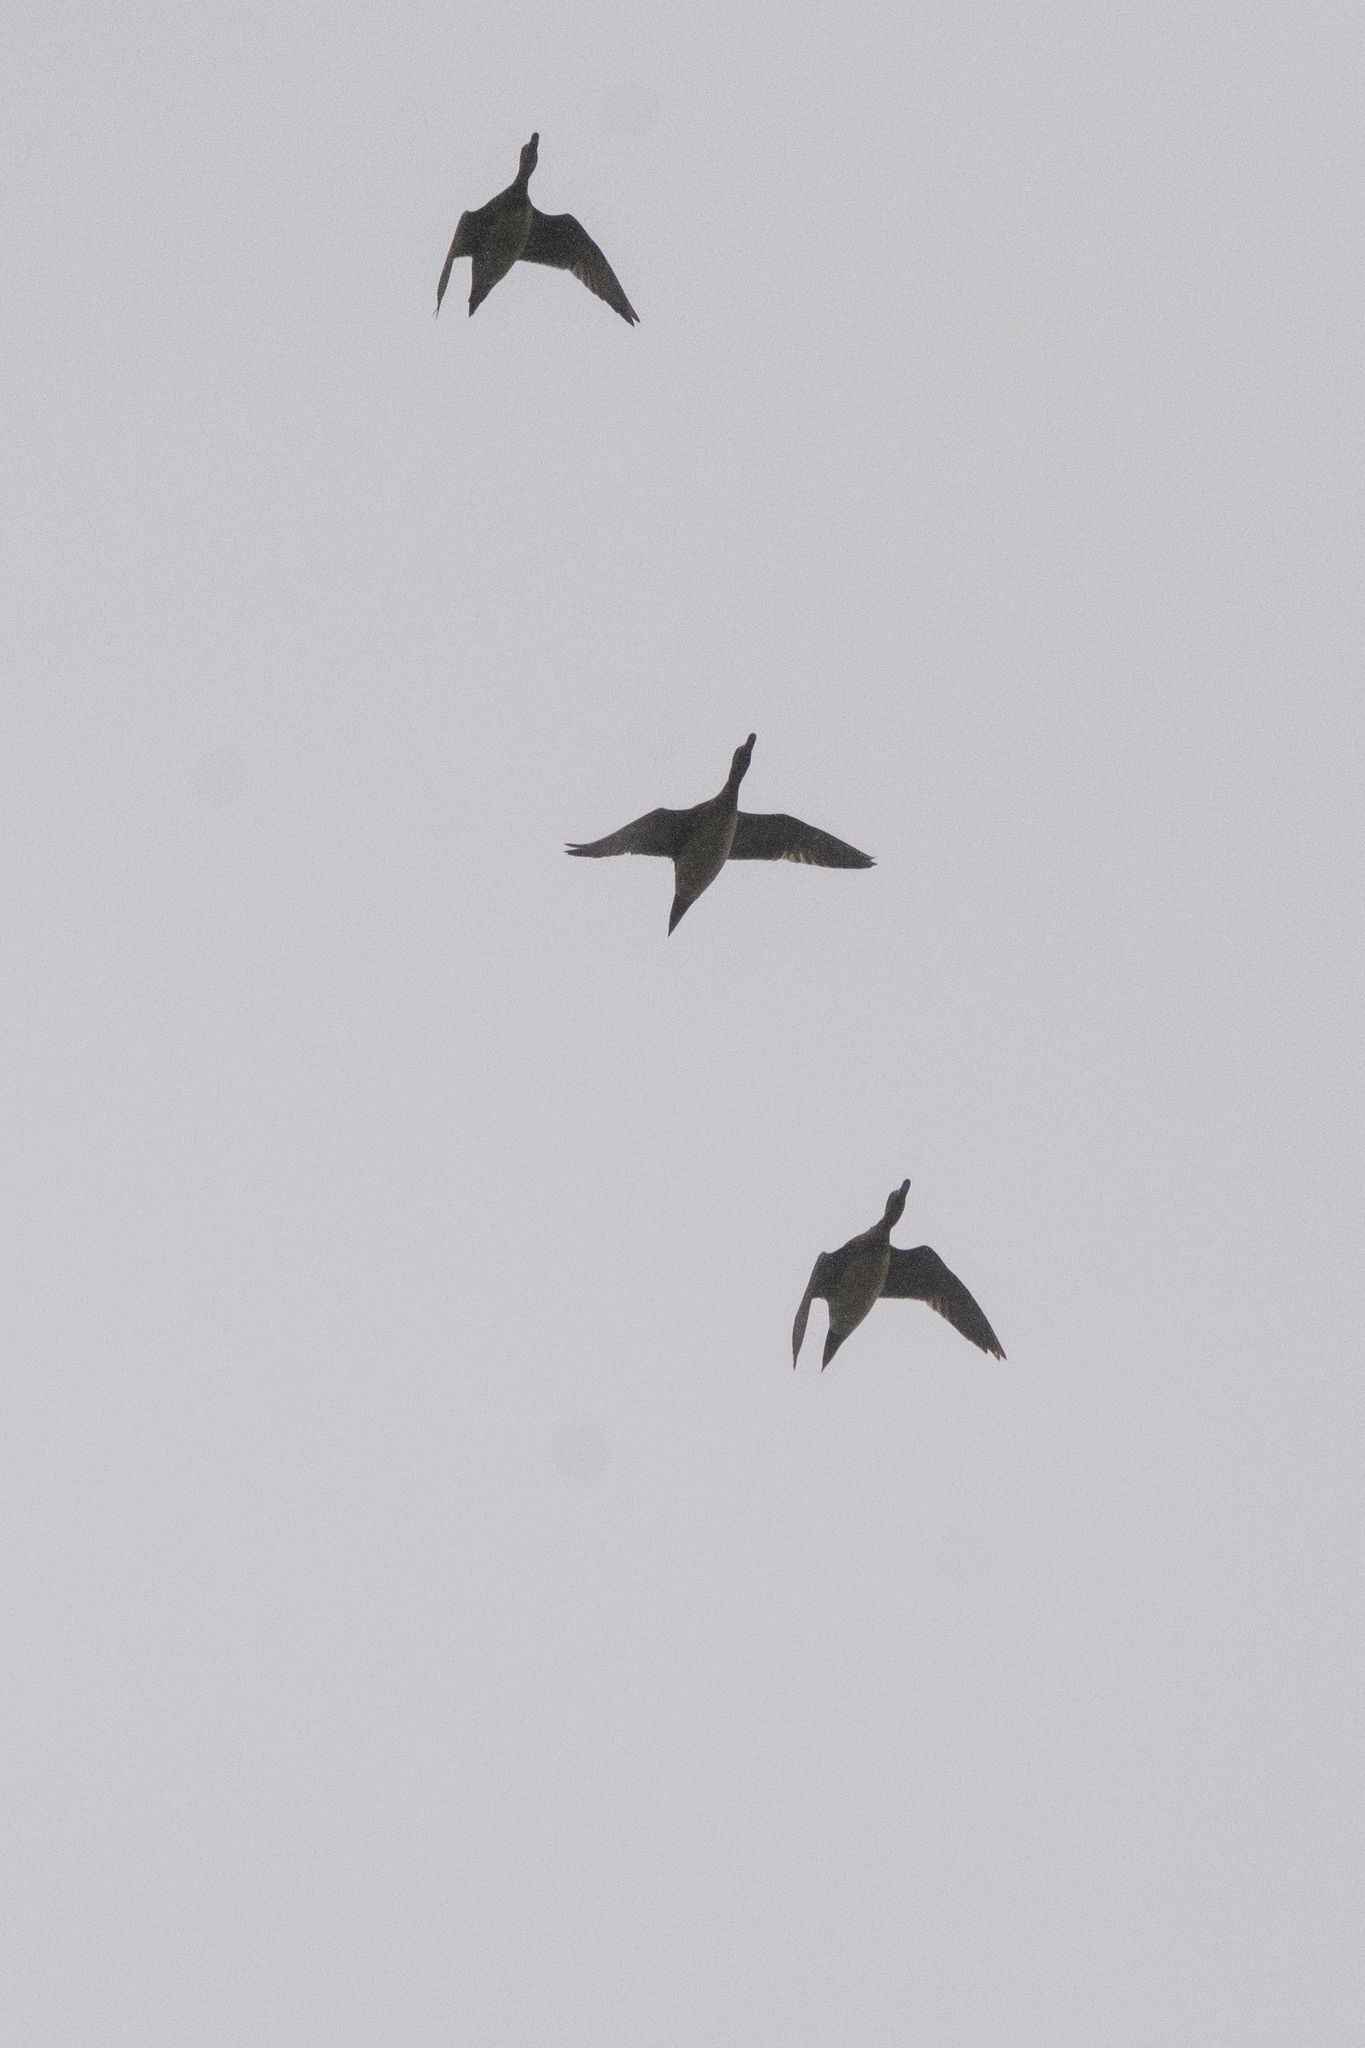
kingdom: Animalia
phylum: Chordata
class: Aves
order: Anseriformes
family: Anatidae
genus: Anas
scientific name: Anas acuta
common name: Northern pintail
